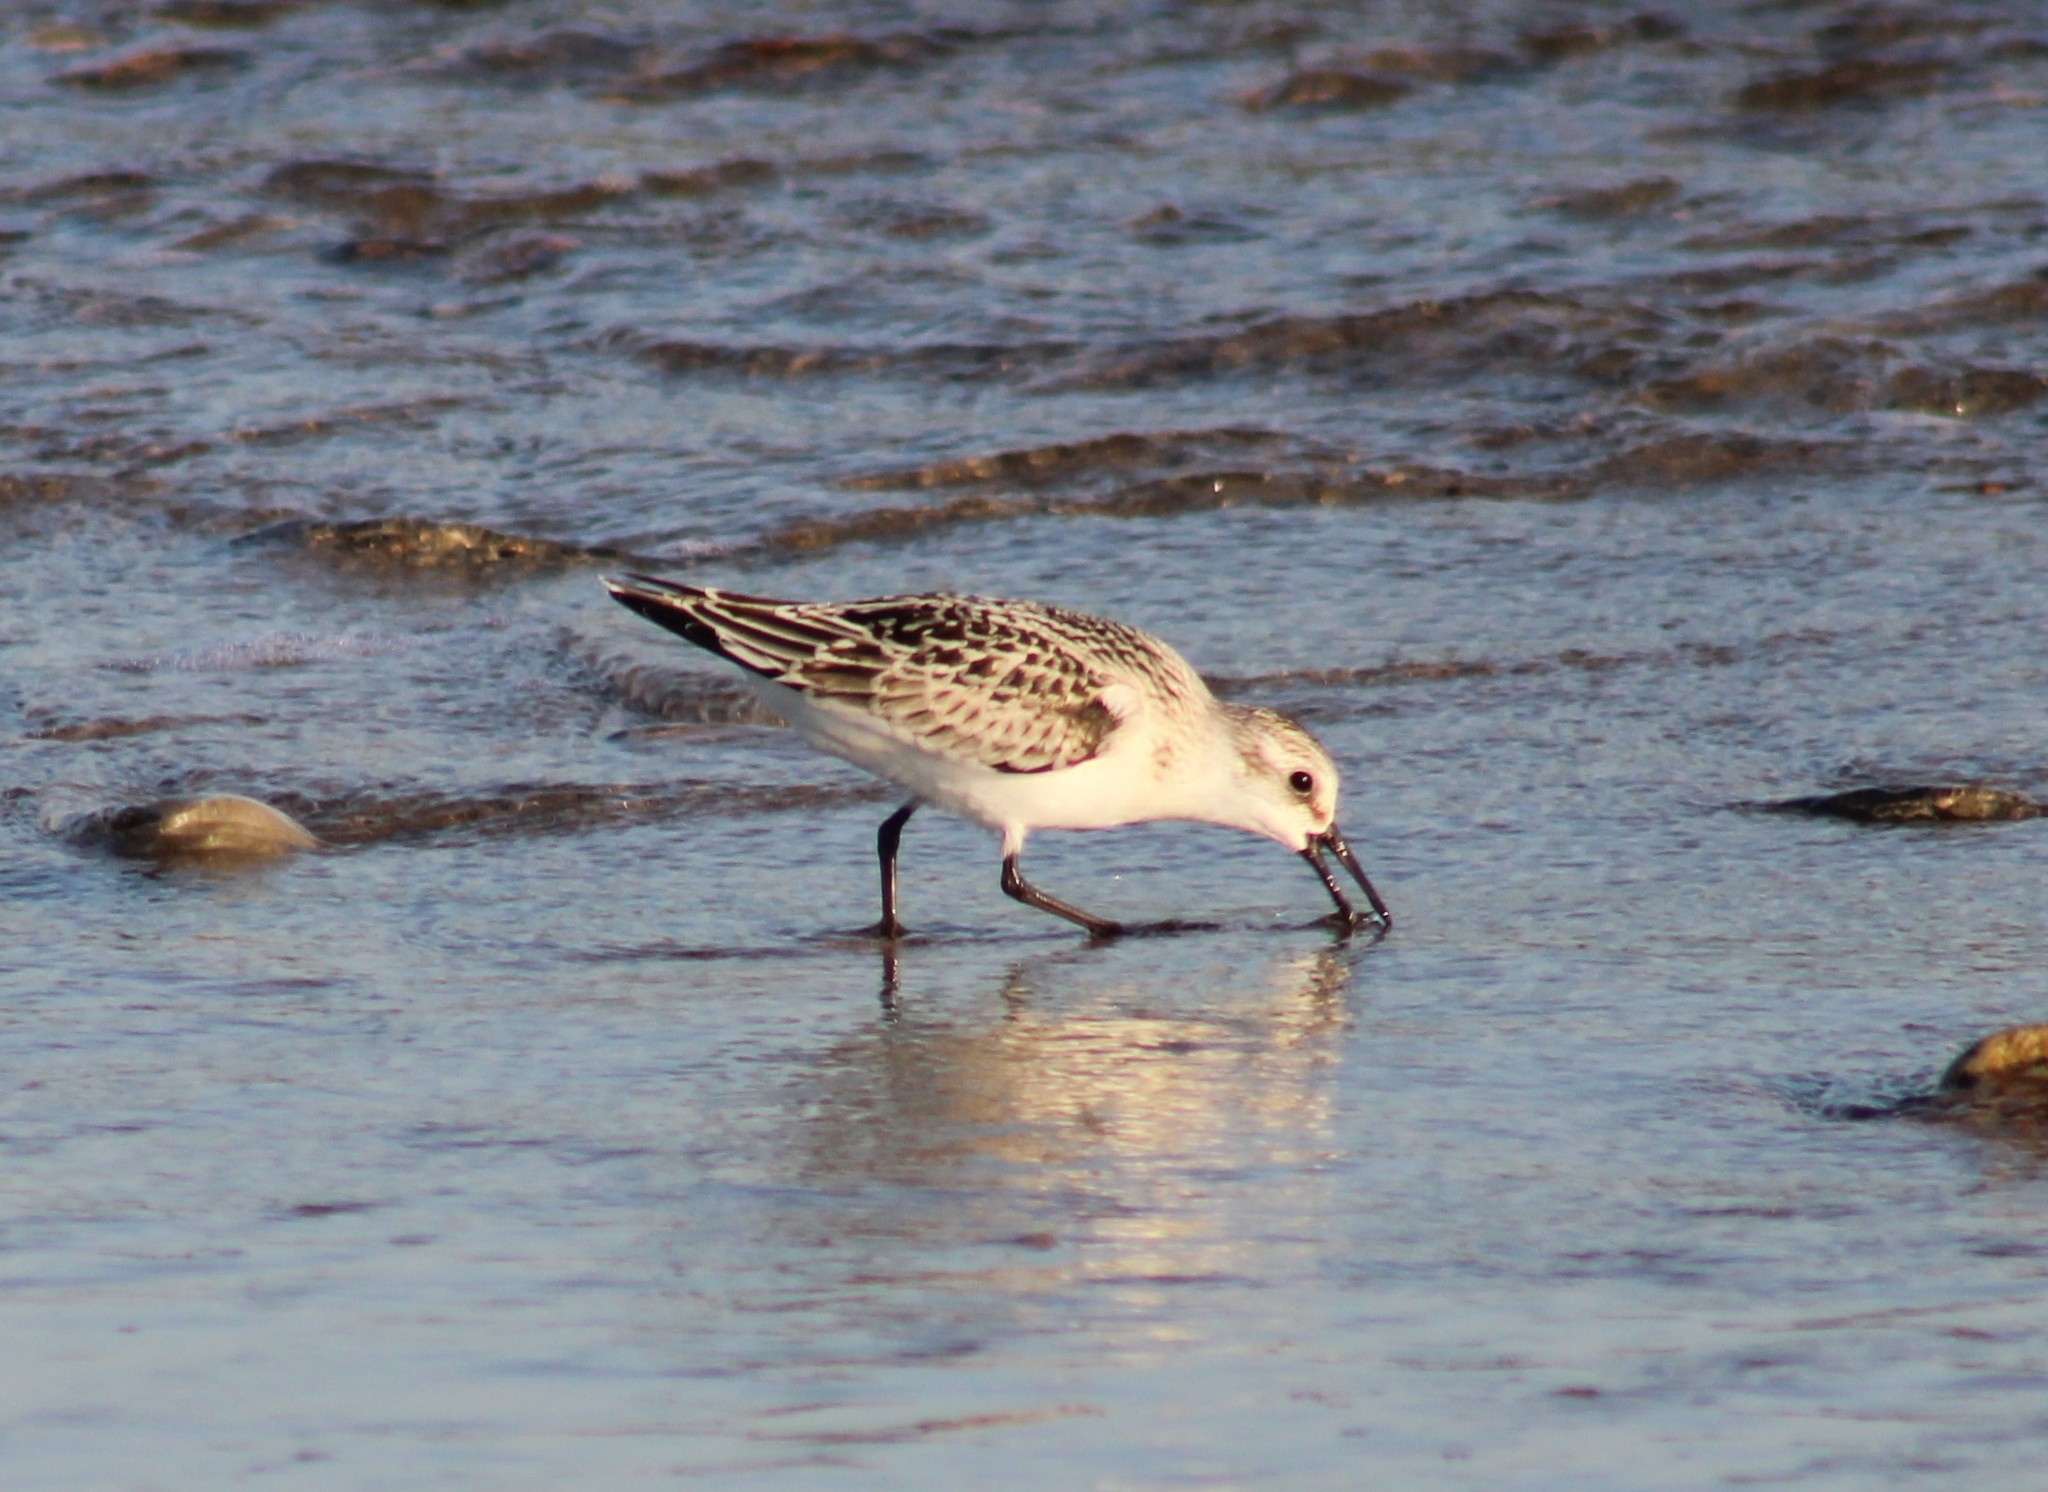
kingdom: Animalia
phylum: Chordata
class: Aves
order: Charadriiformes
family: Scolopacidae
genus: Calidris
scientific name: Calidris alba
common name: Sanderling
